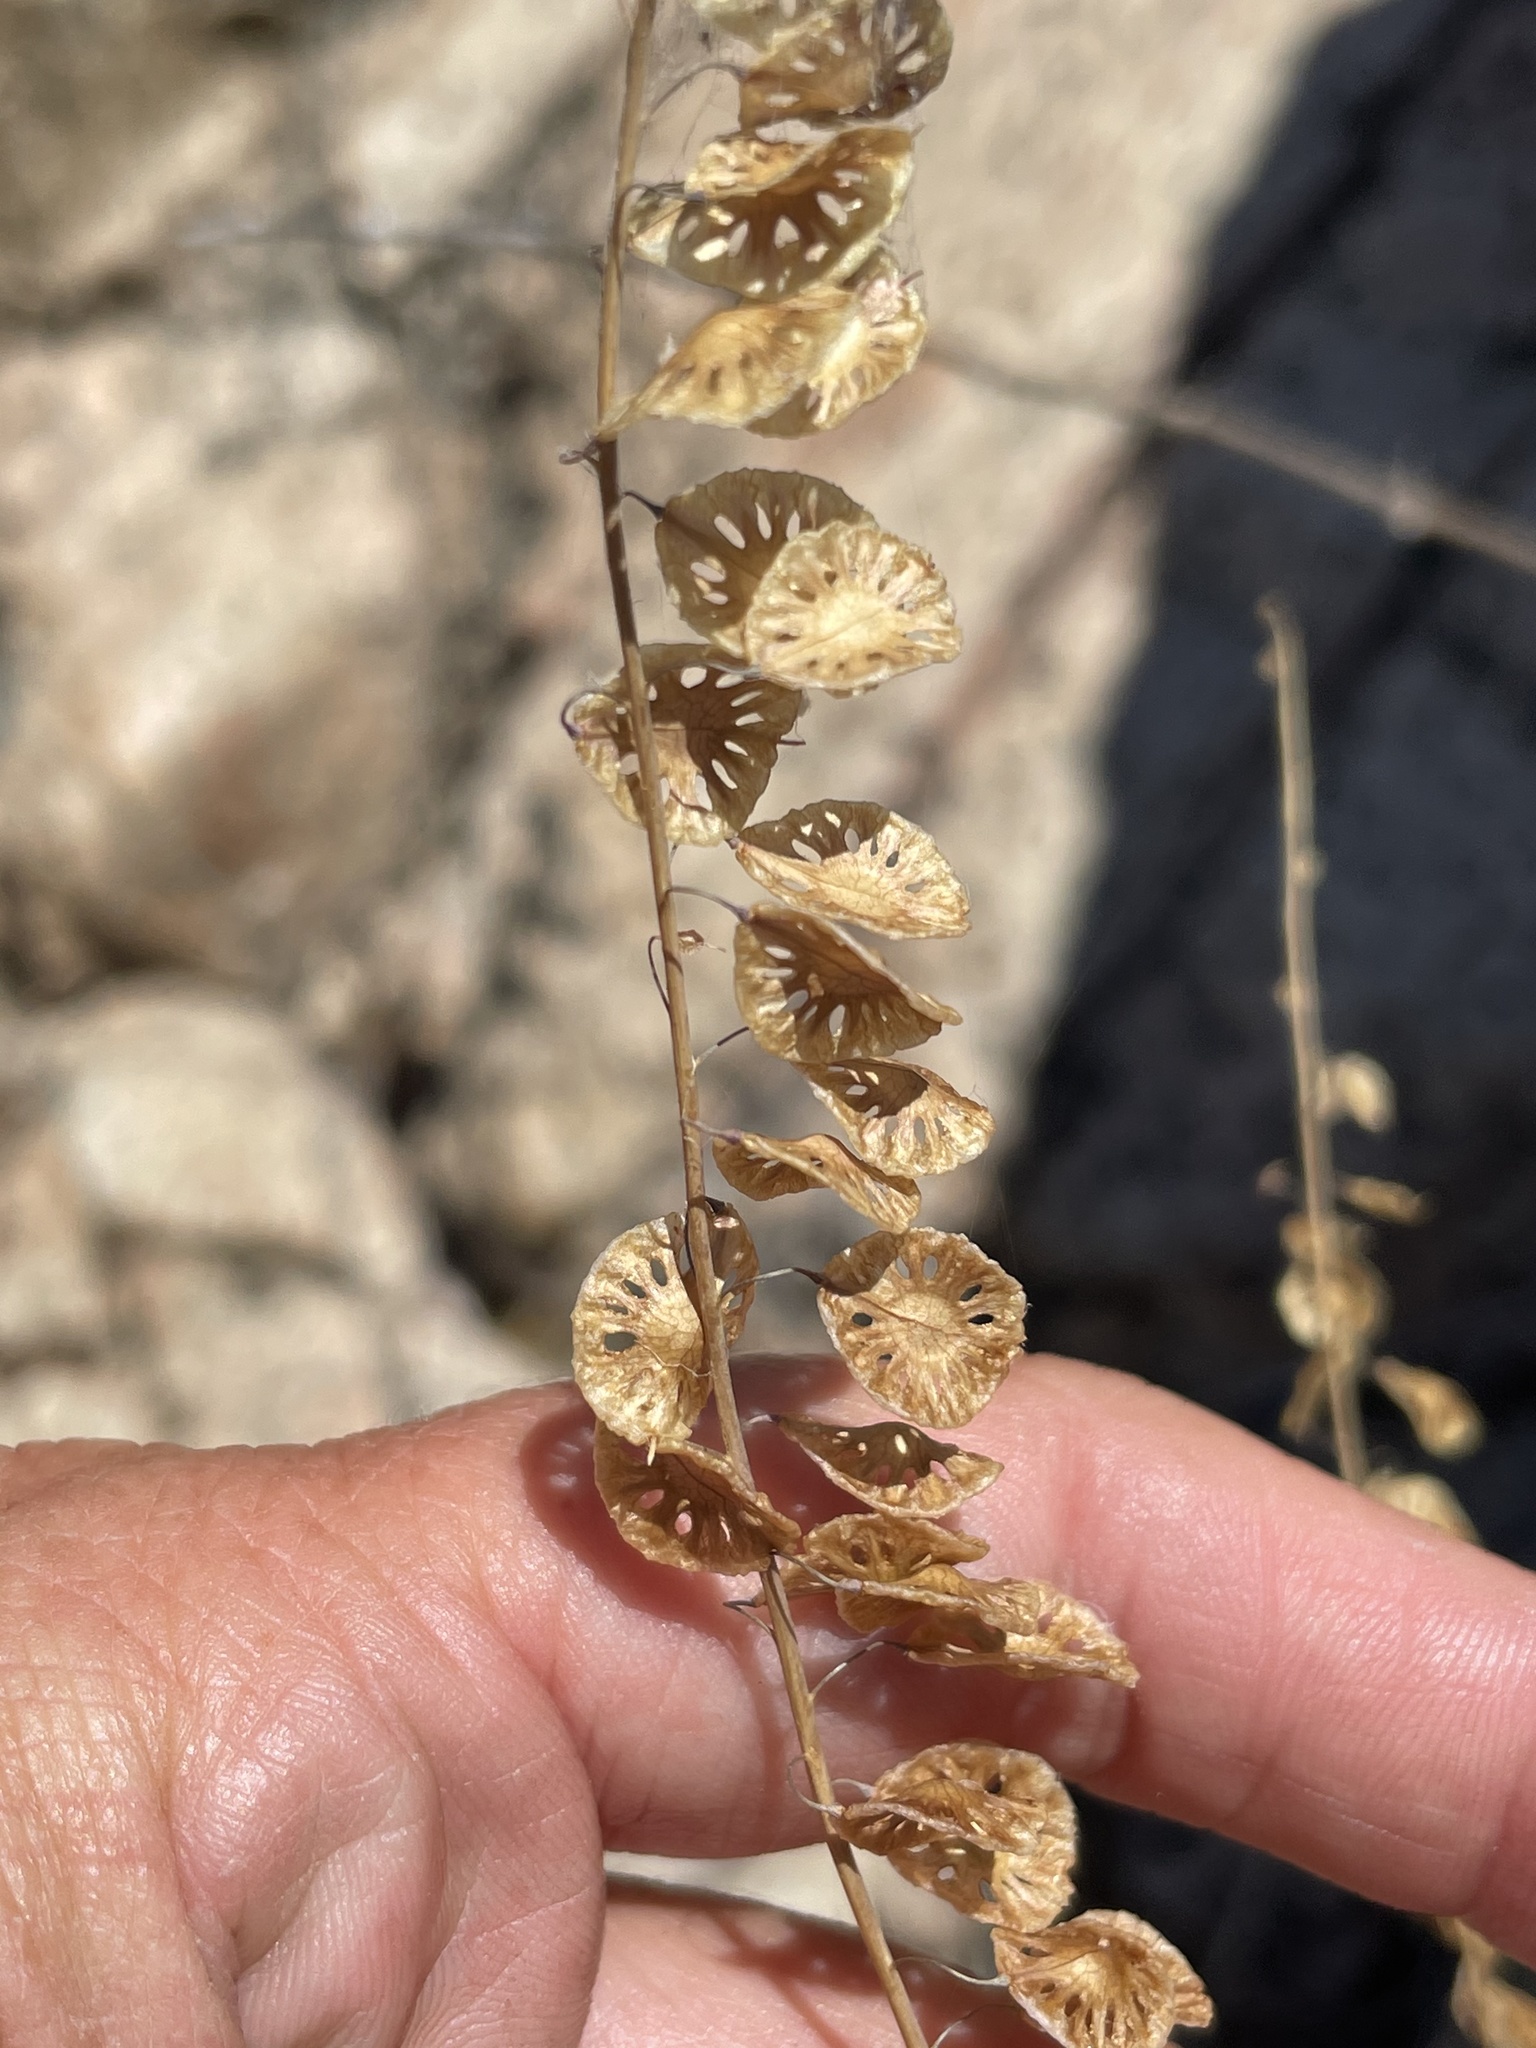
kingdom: Plantae
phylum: Tracheophyta
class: Magnoliopsida
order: Brassicales
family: Brassicaceae
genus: Thysanocarpus
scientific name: Thysanocarpus curvipes
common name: Sand fringepod
